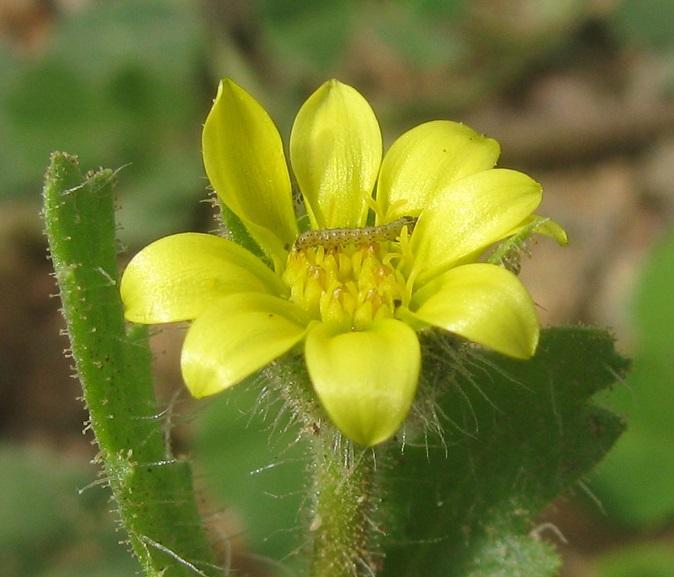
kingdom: Plantae
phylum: Tracheophyta
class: Magnoliopsida
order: Asterales
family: Asteraceae
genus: Osteospermum
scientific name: Osteospermum acanthospermum
